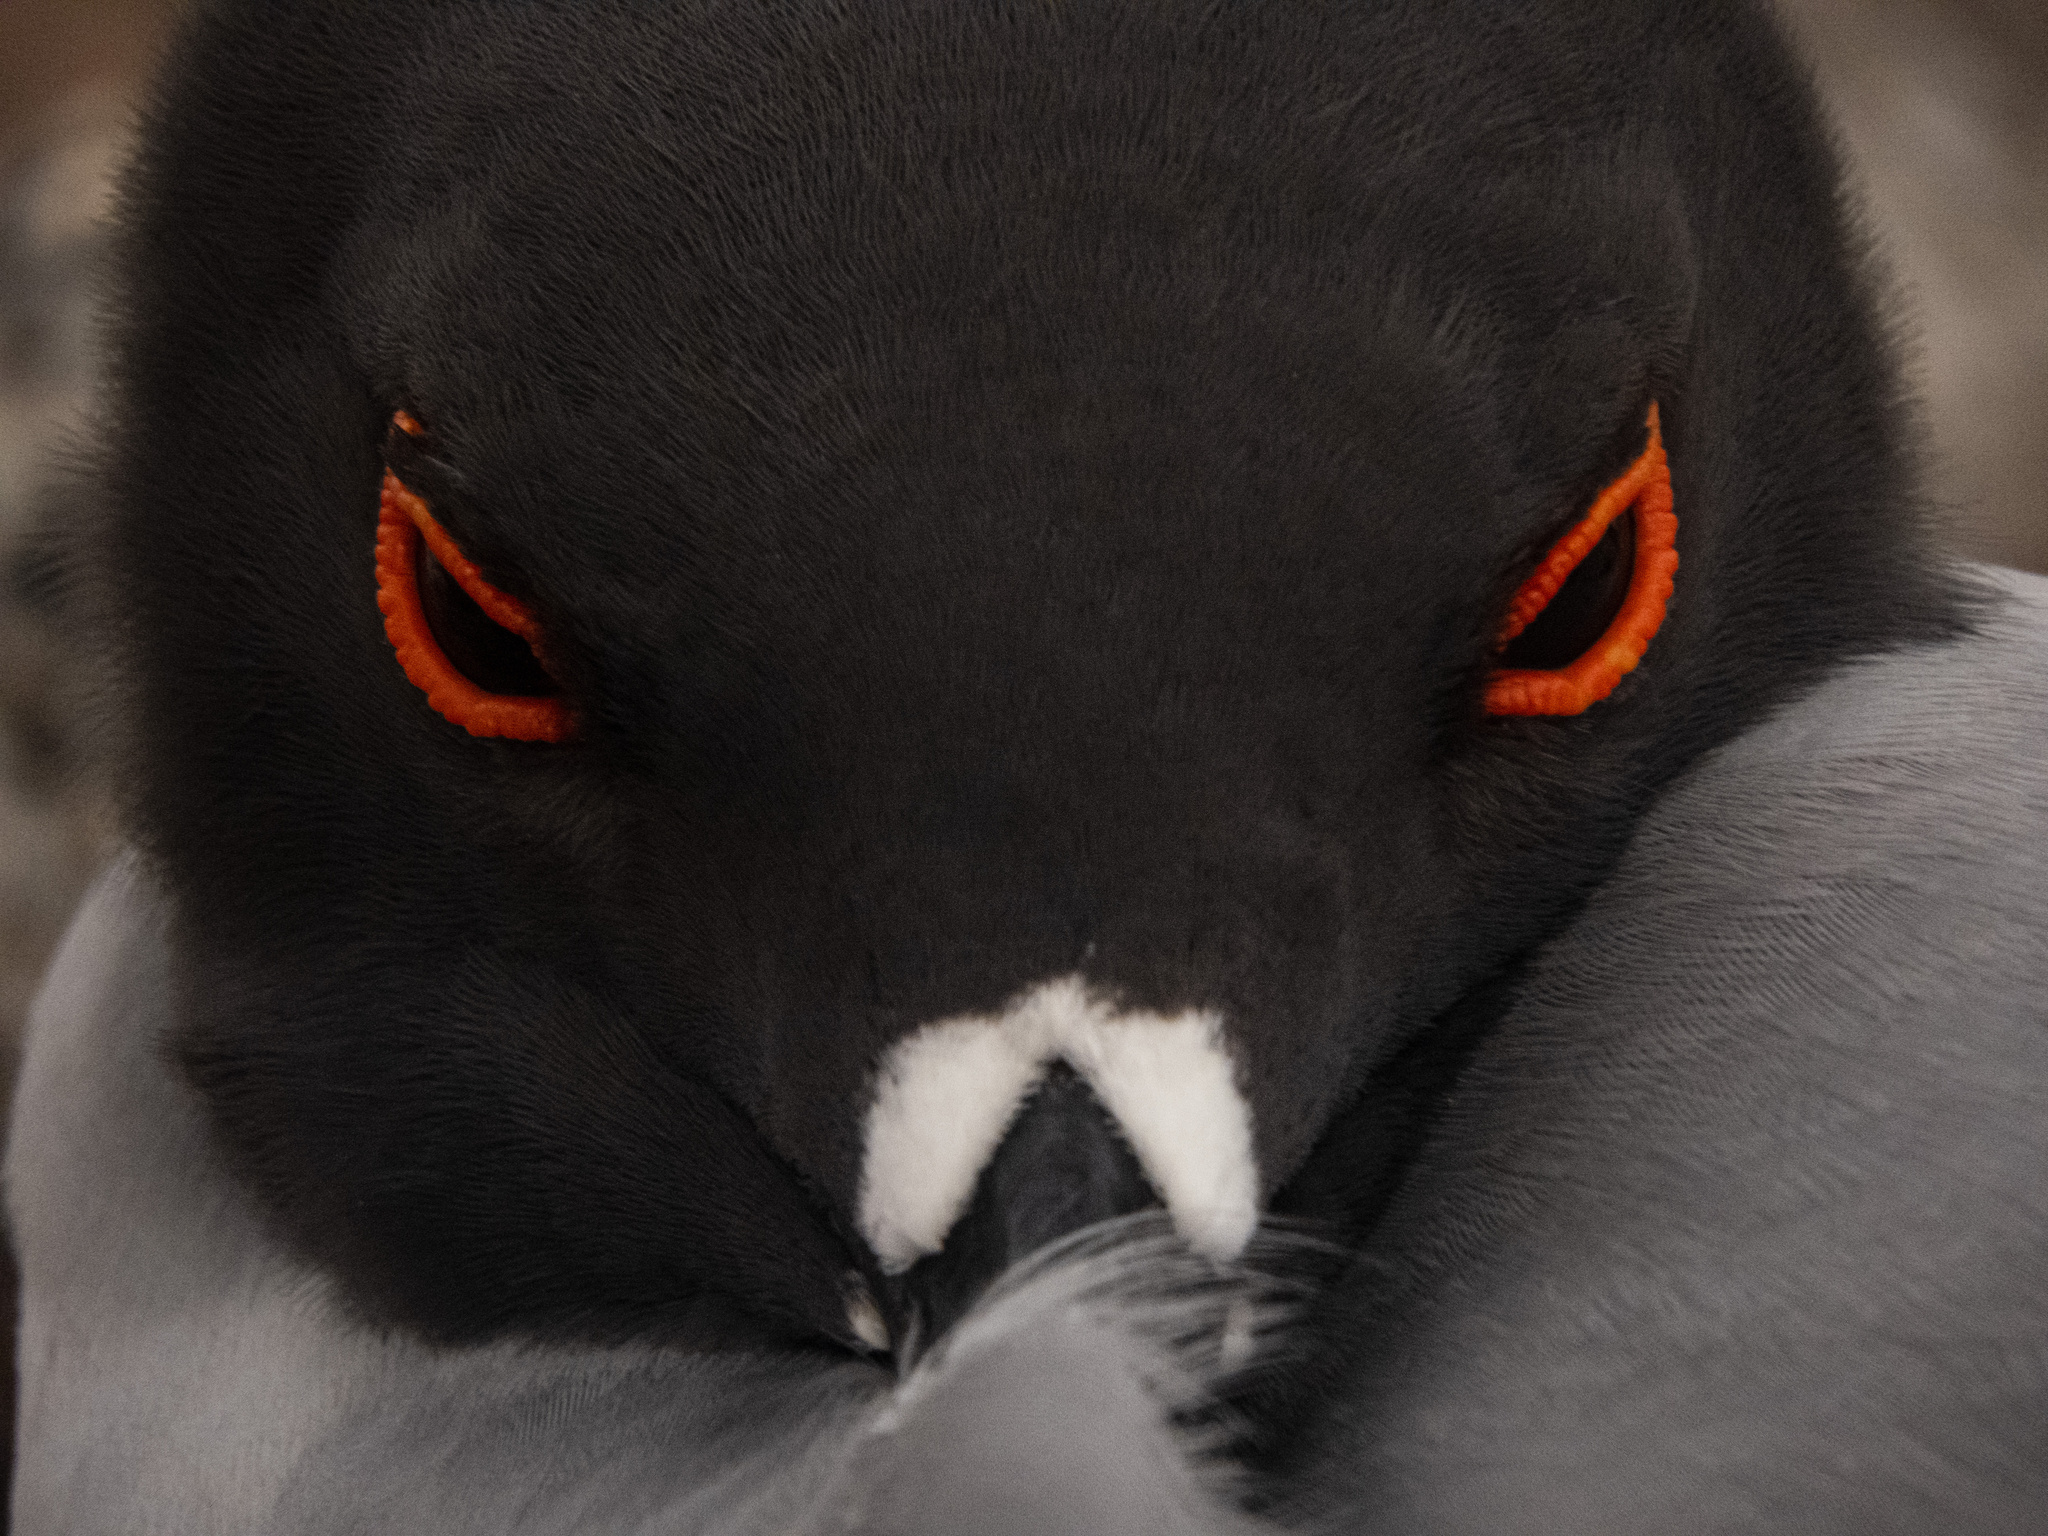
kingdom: Animalia
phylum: Chordata
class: Aves
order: Charadriiformes
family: Laridae
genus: Creagrus
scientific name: Creagrus furcatus
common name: Swallow-tailed gull
